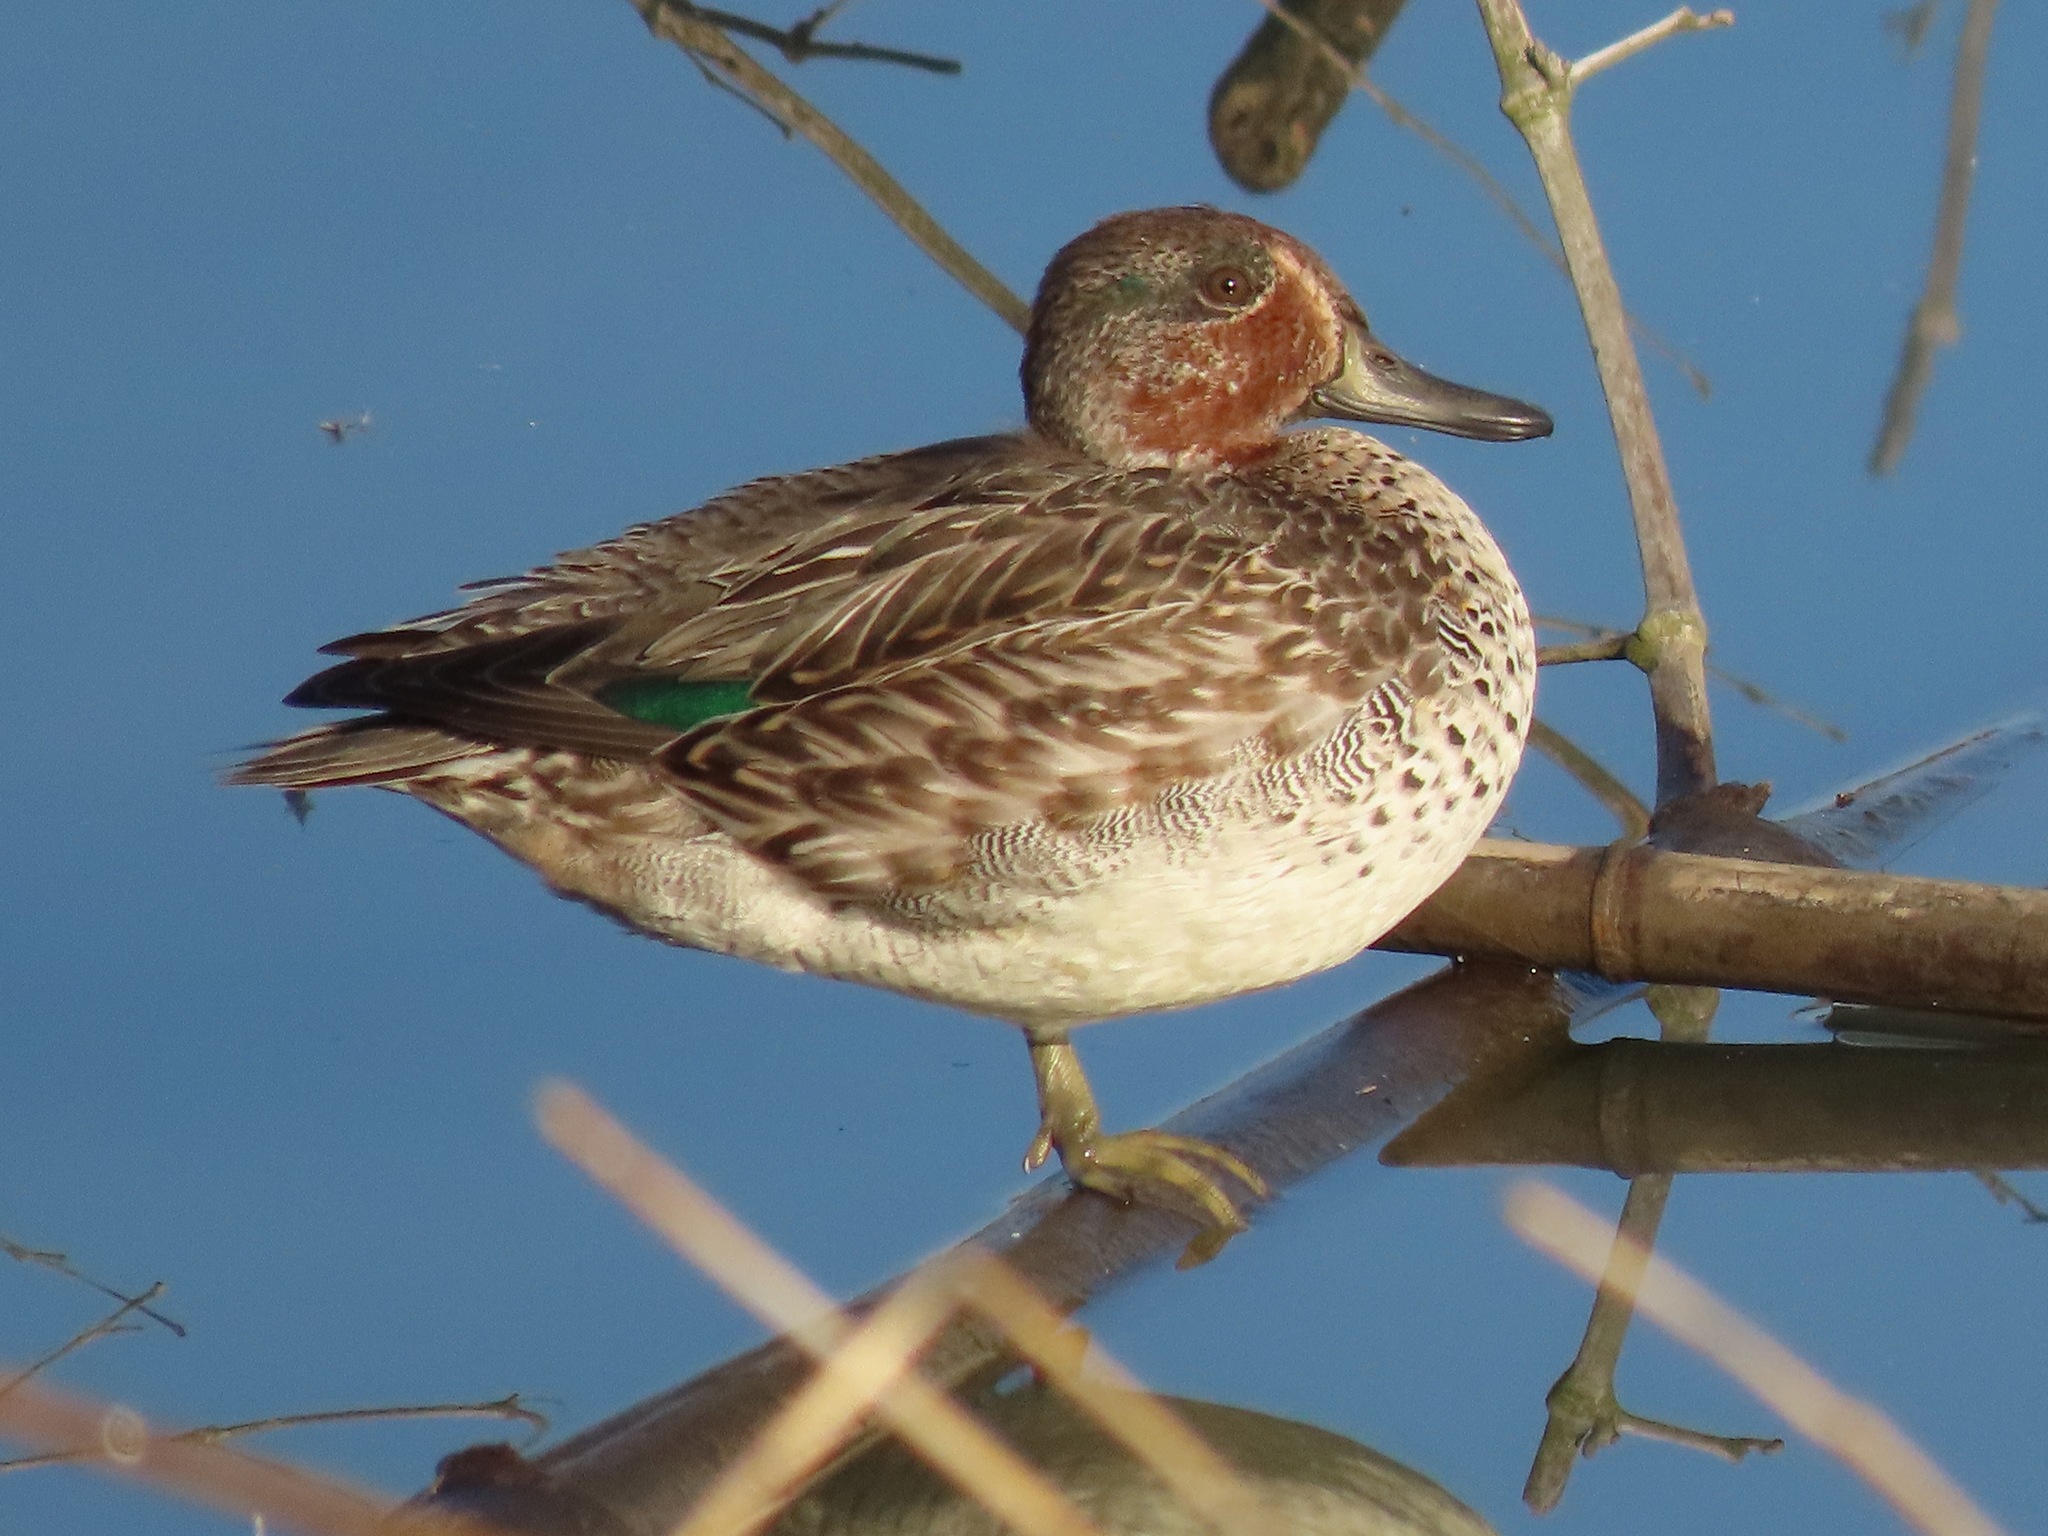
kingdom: Animalia
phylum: Chordata
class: Aves
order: Anseriformes
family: Anatidae
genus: Anas
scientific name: Anas crecca
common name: Eurasian teal
